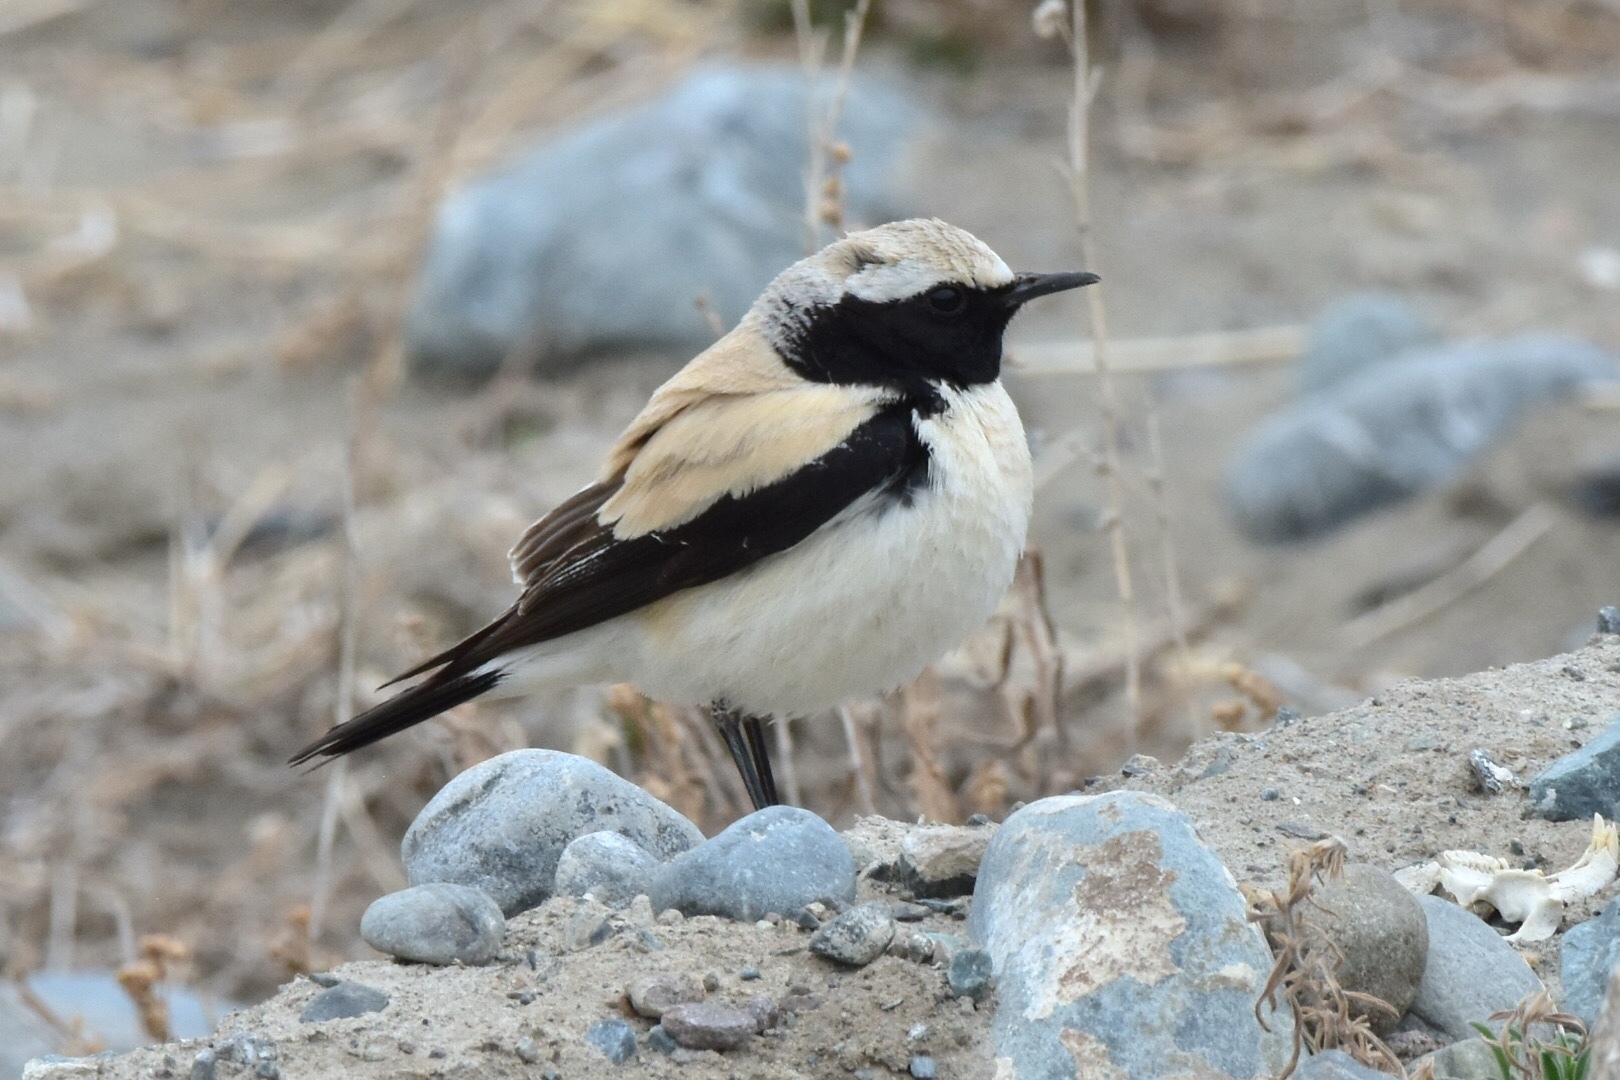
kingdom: Animalia
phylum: Chordata
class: Aves
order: Passeriformes
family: Muscicapidae
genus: Oenanthe
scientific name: Oenanthe deserti
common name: Desert wheatear
